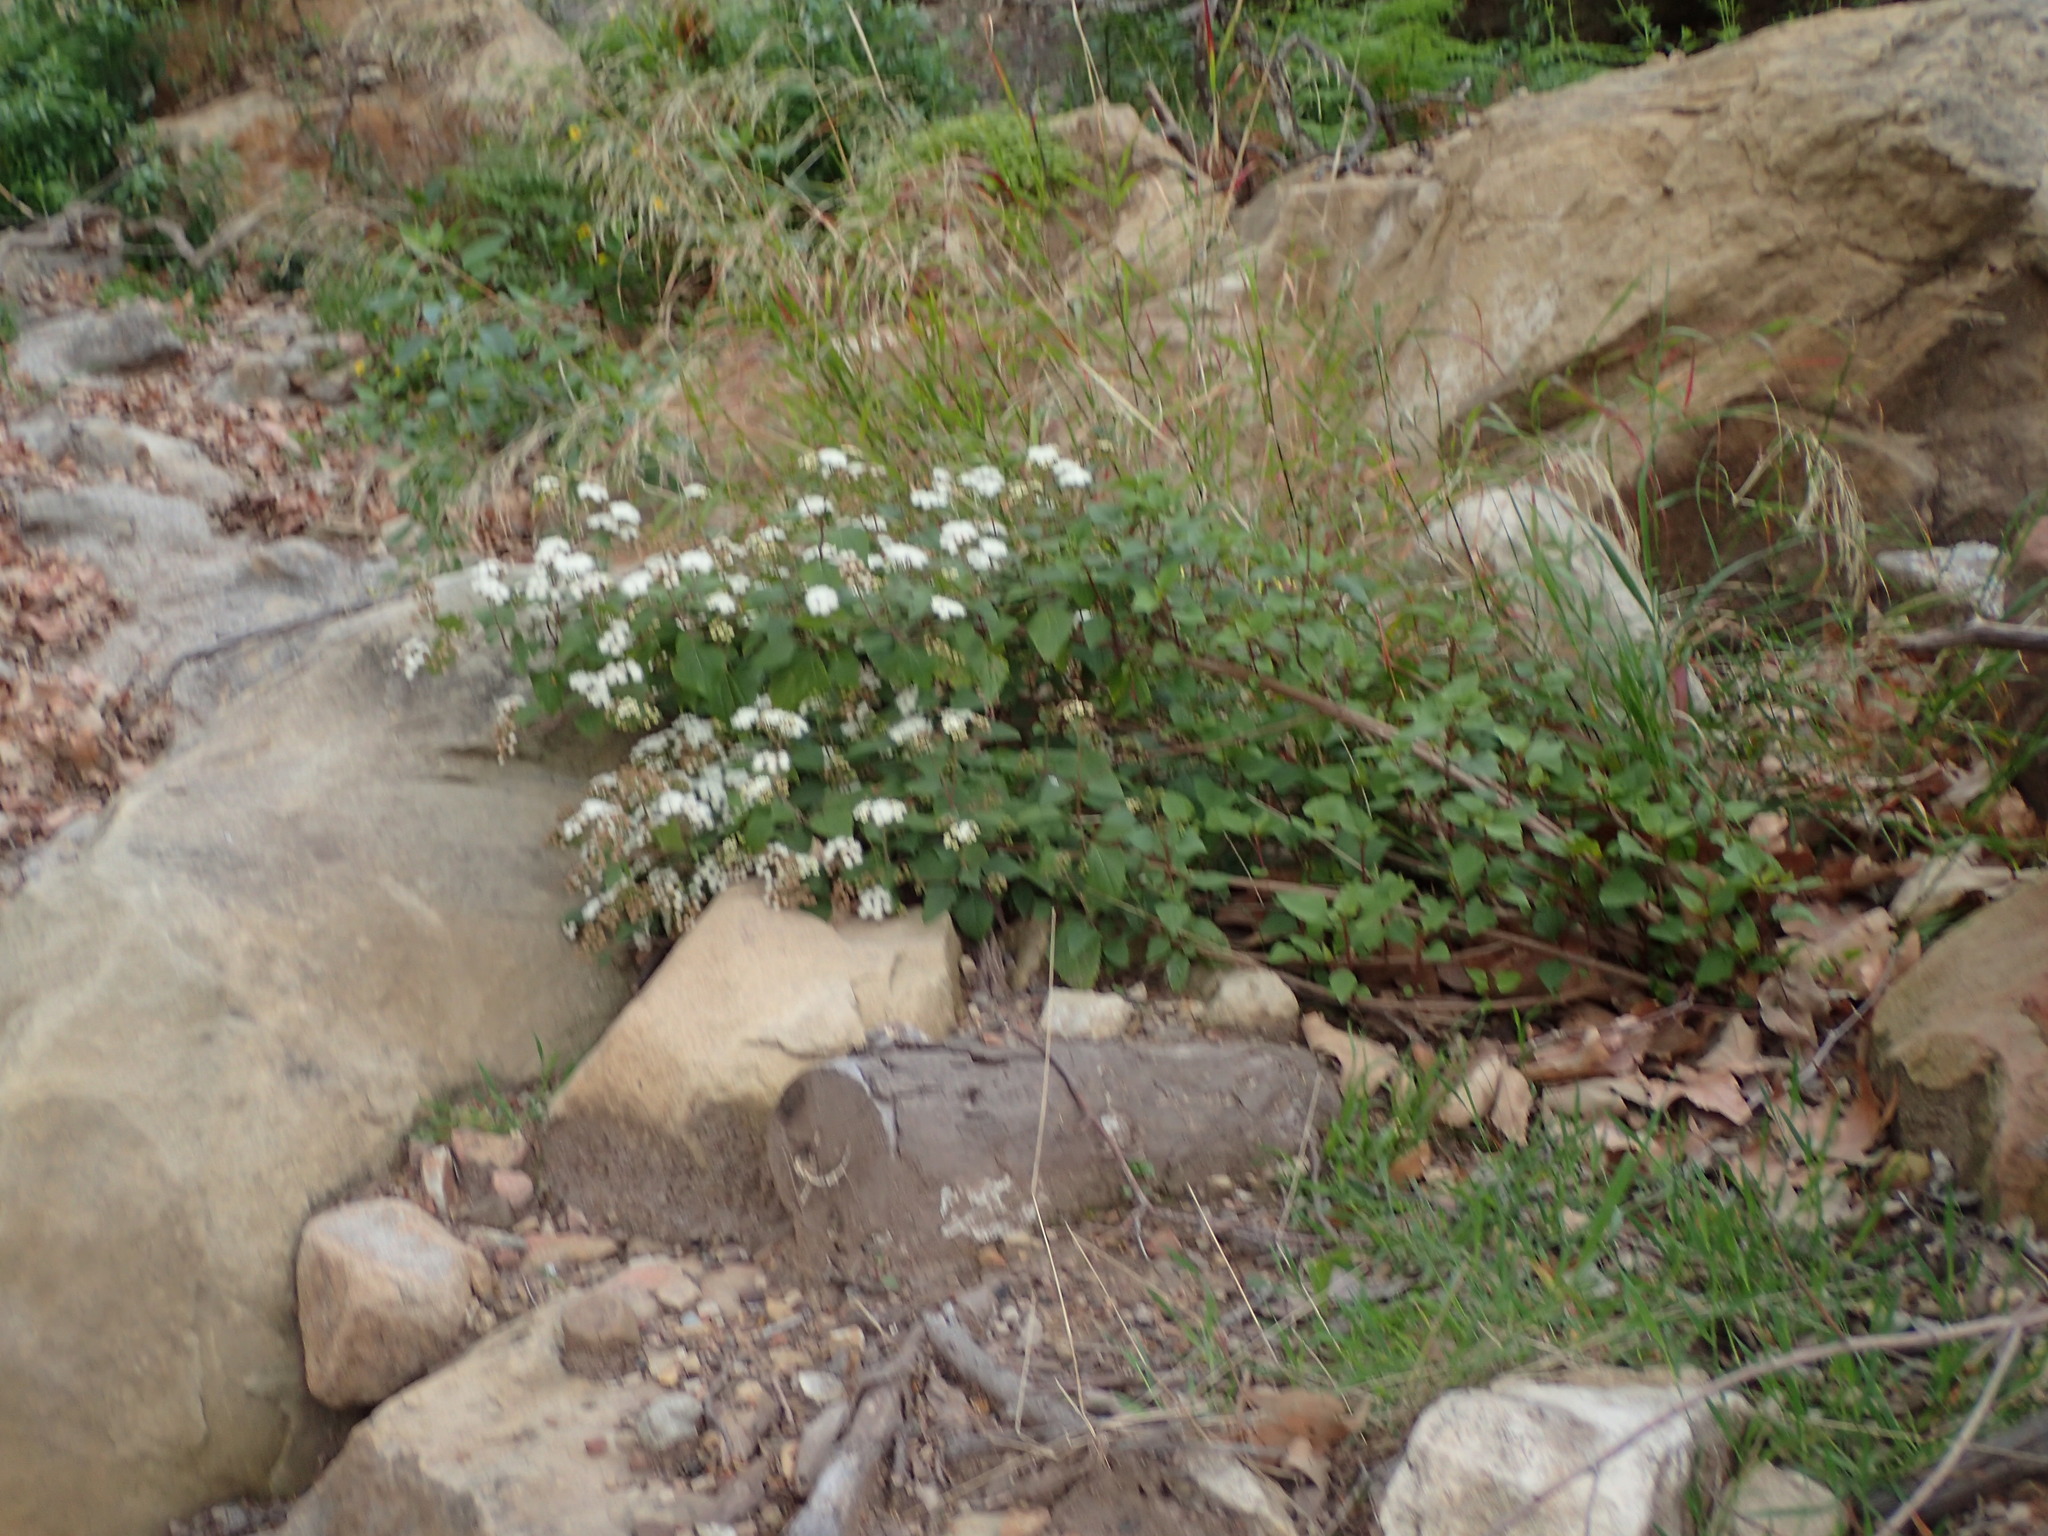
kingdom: Plantae
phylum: Tracheophyta
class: Magnoliopsida
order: Asterales
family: Asteraceae
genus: Ageratina
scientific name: Ageratina adenophora
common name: Sticky snakeroot
